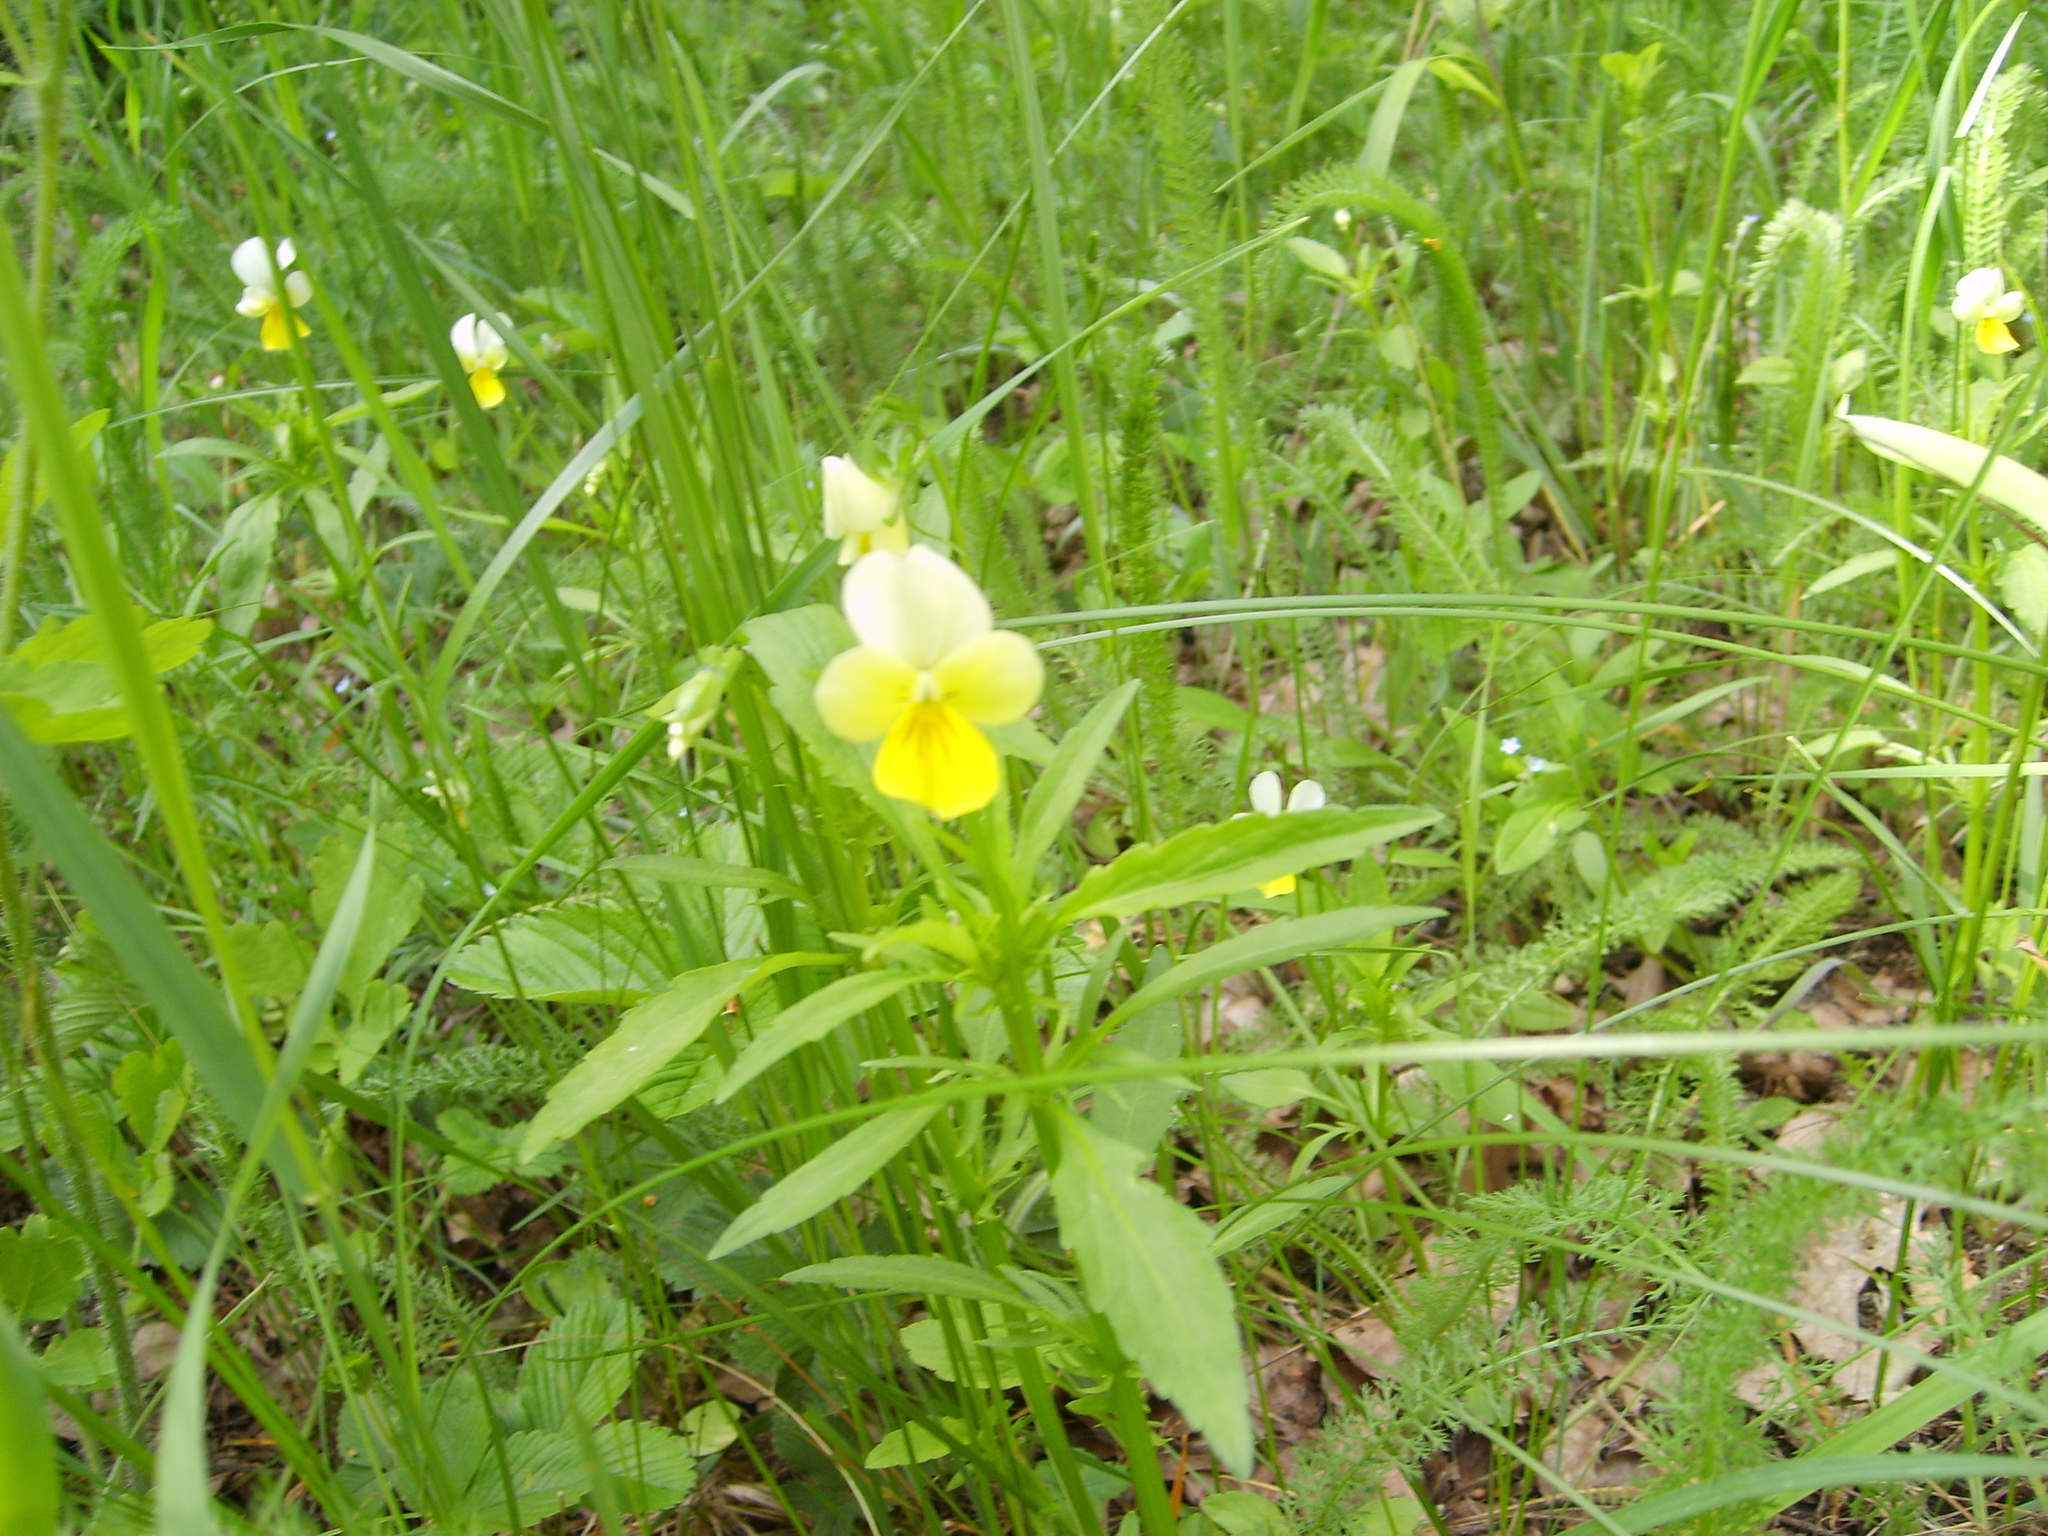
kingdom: Plantae
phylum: Tracheophyta
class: Magnoliopsida
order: Malpighiales
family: Violaceae
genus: Viola
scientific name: Viola tricolor
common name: Pansy
